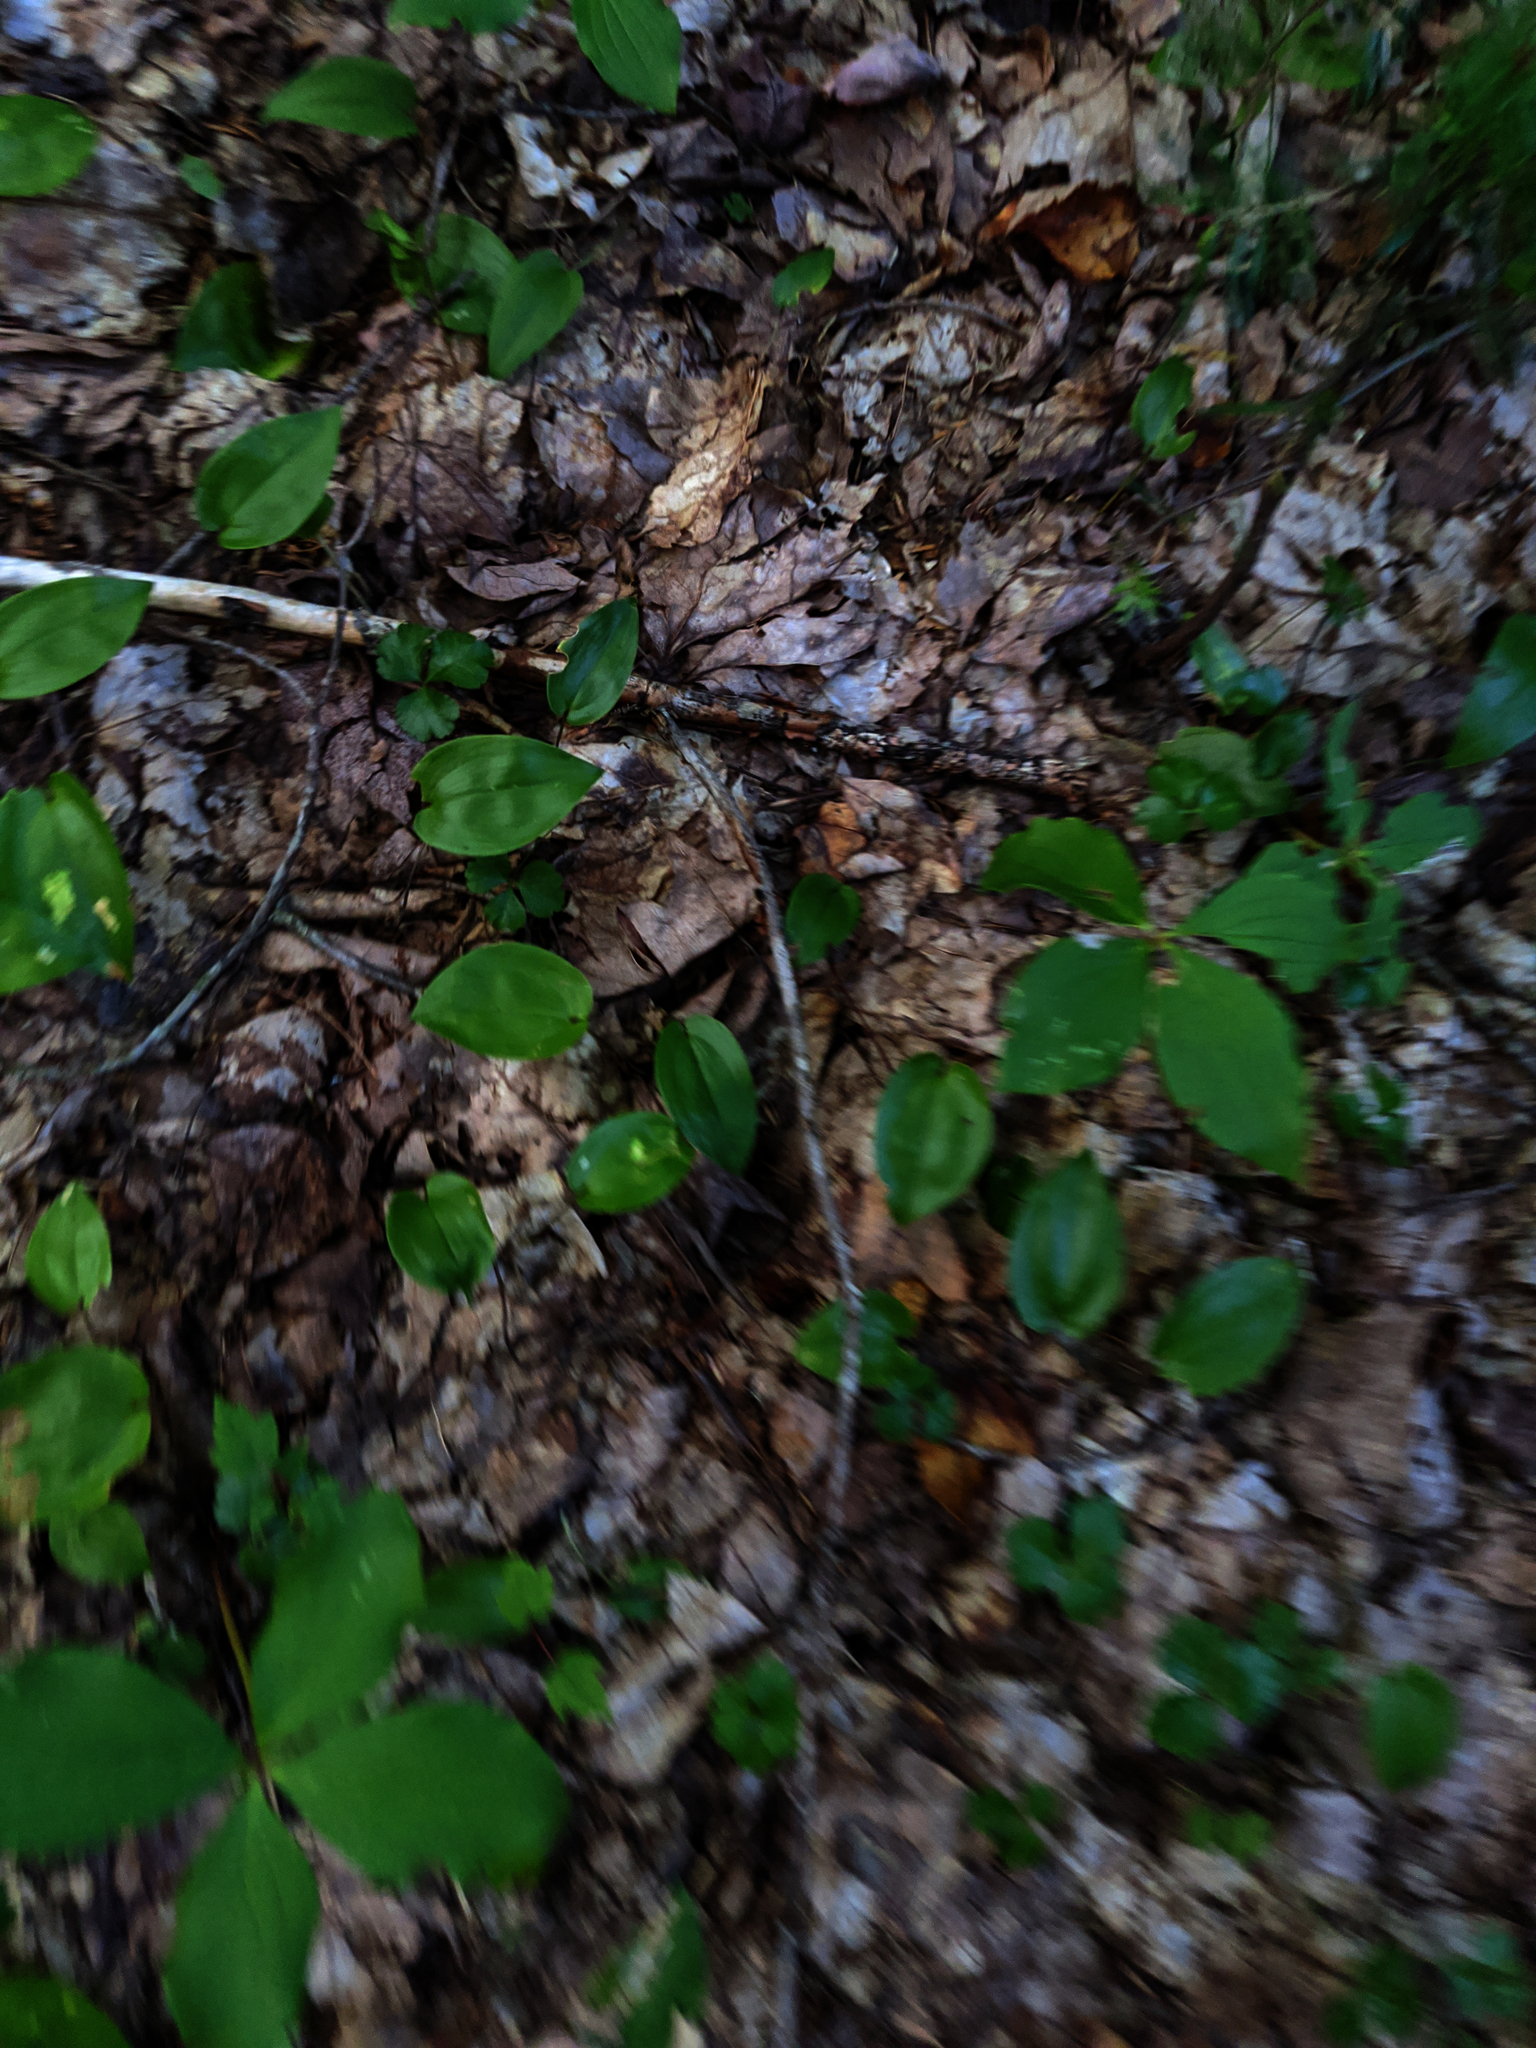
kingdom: Plantae
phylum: Tracheophyta
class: Liliopsida
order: Asparagales
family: Asparagaceae
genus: Maianthemum
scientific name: Maianthemum canadense
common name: False lily-of-the-valley
